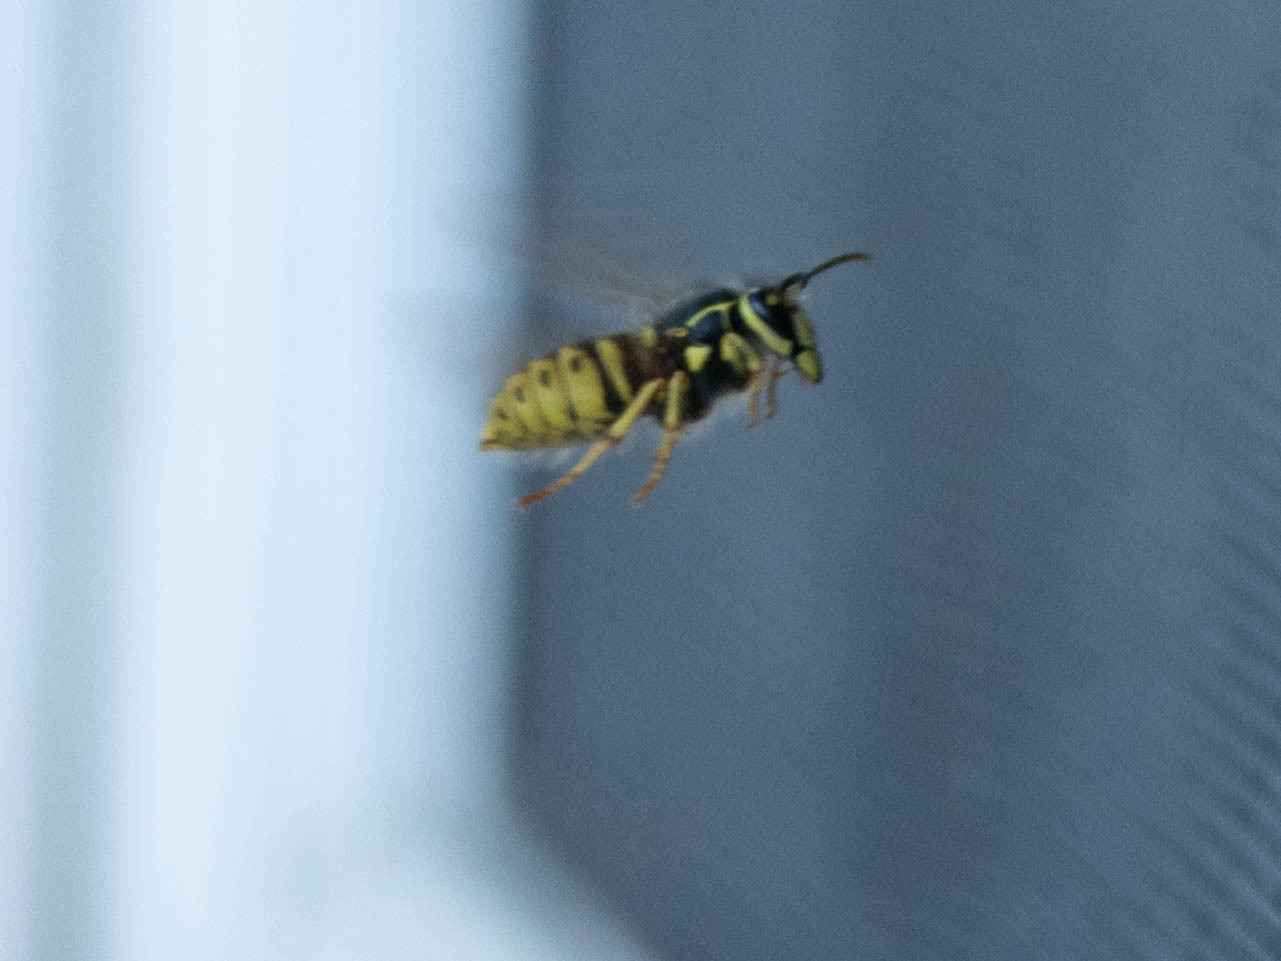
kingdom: Animalia
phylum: Arthropoda
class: Insecta
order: Hymenoptera
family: Vespidae
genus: Dolichovespula
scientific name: Dolichovespula arenaria
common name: Aerial yellowjacket
